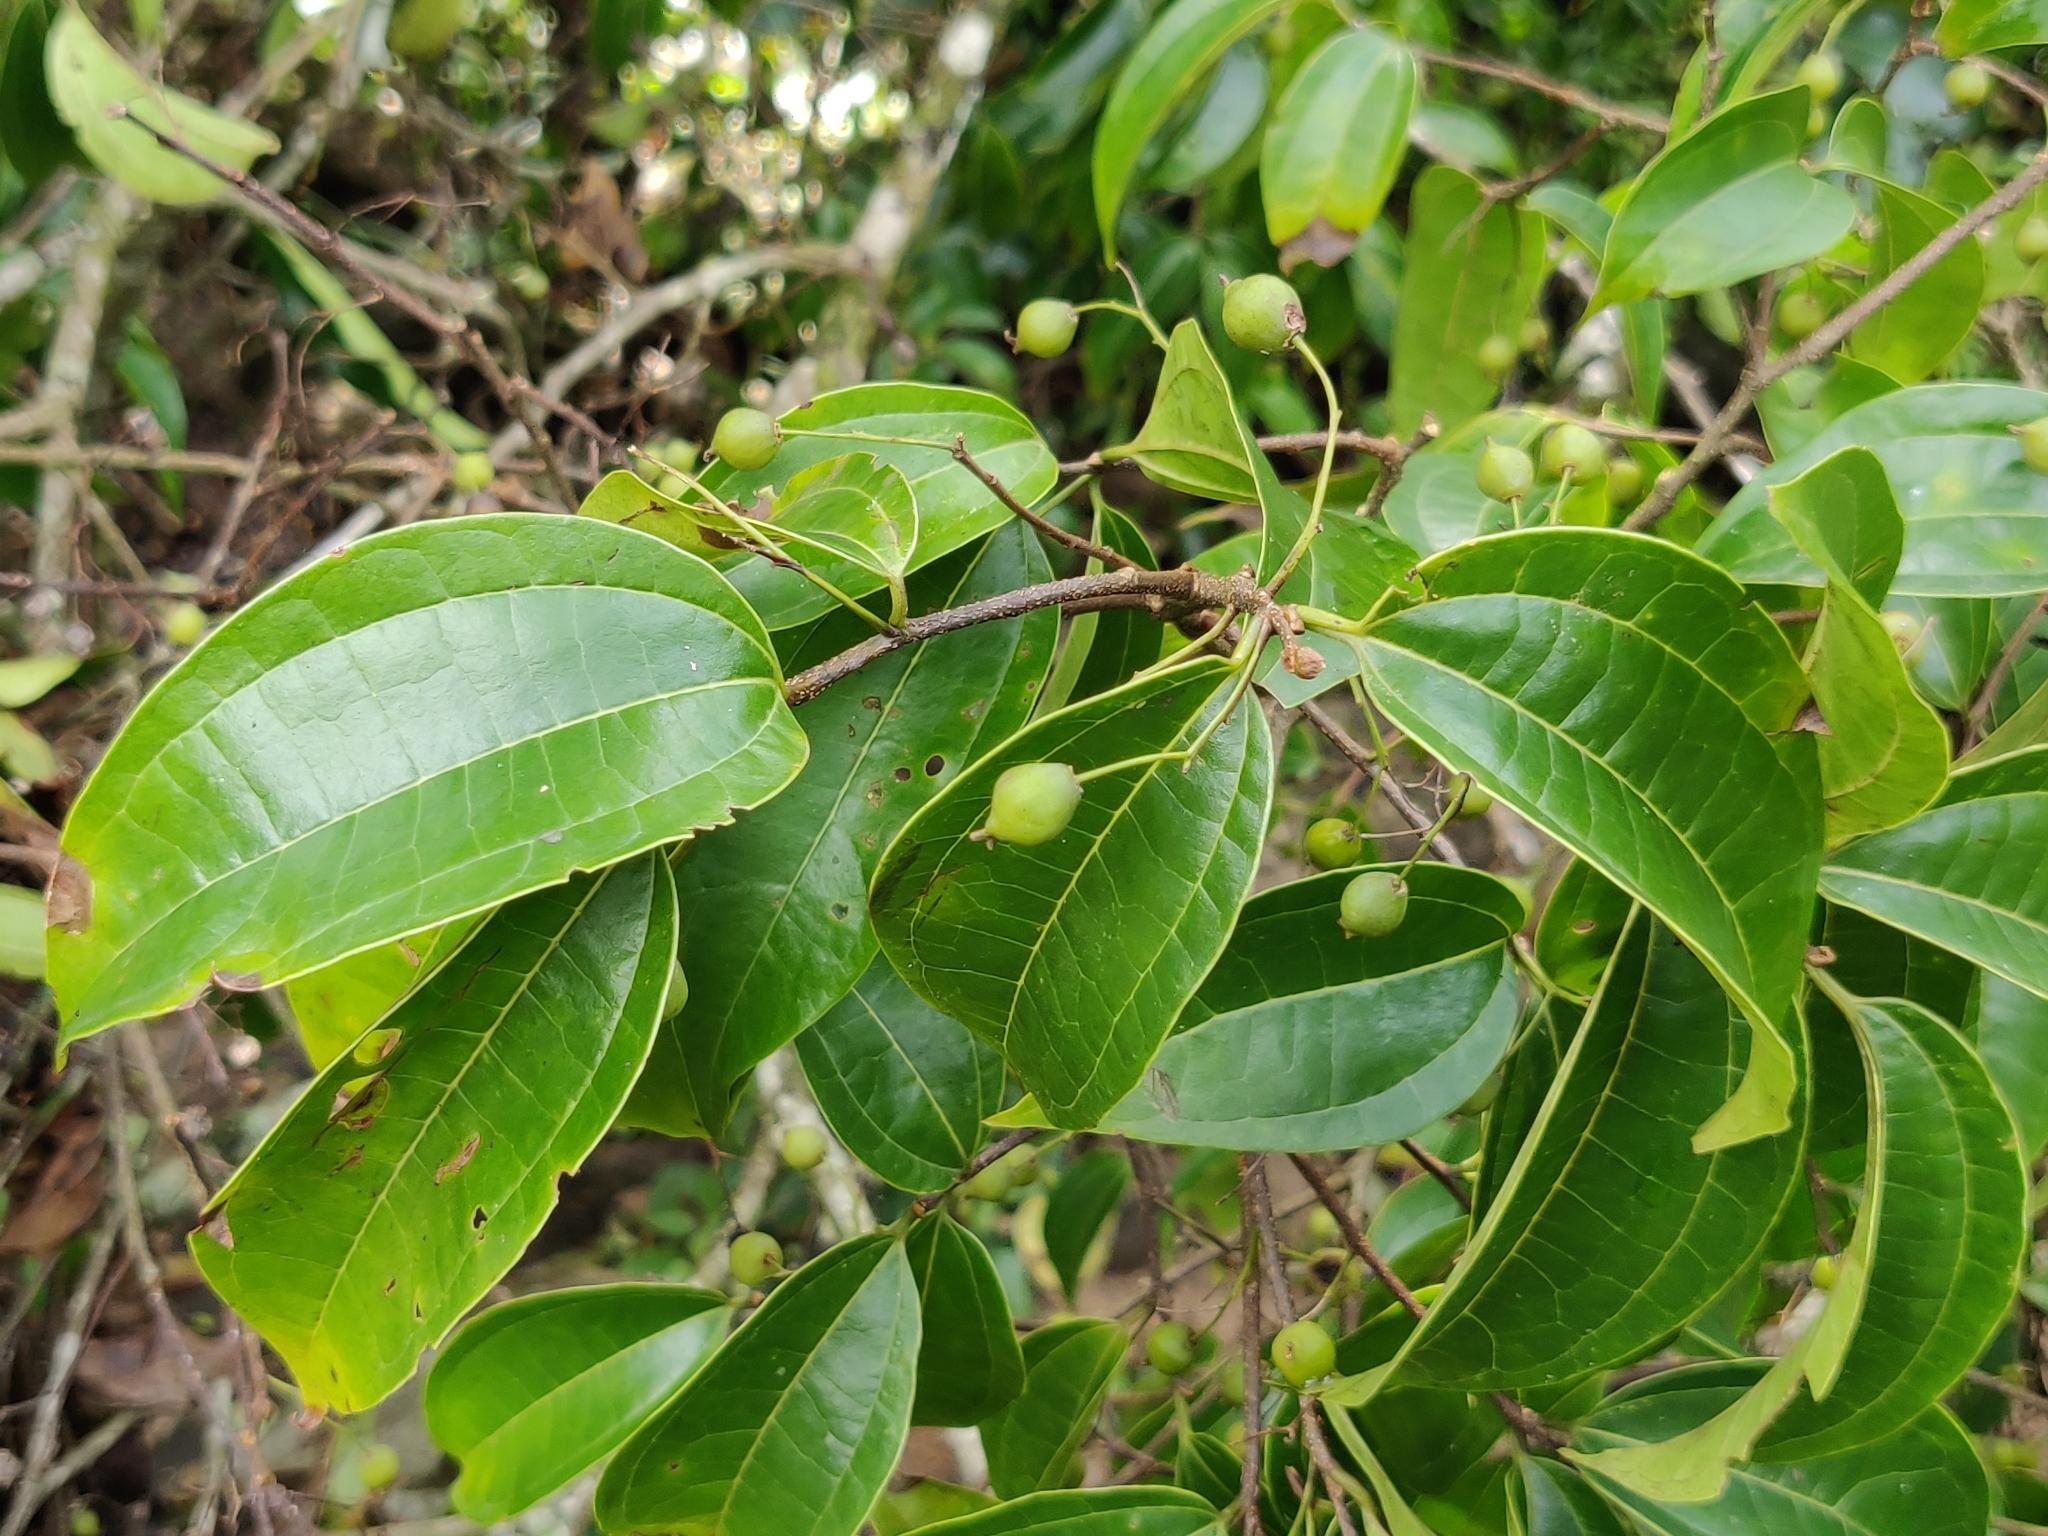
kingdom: Plantae
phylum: Tracheophyta
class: Magnoliopsida
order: Rosales
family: Cannabaceae
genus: Celtis
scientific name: Celtis timorensis
